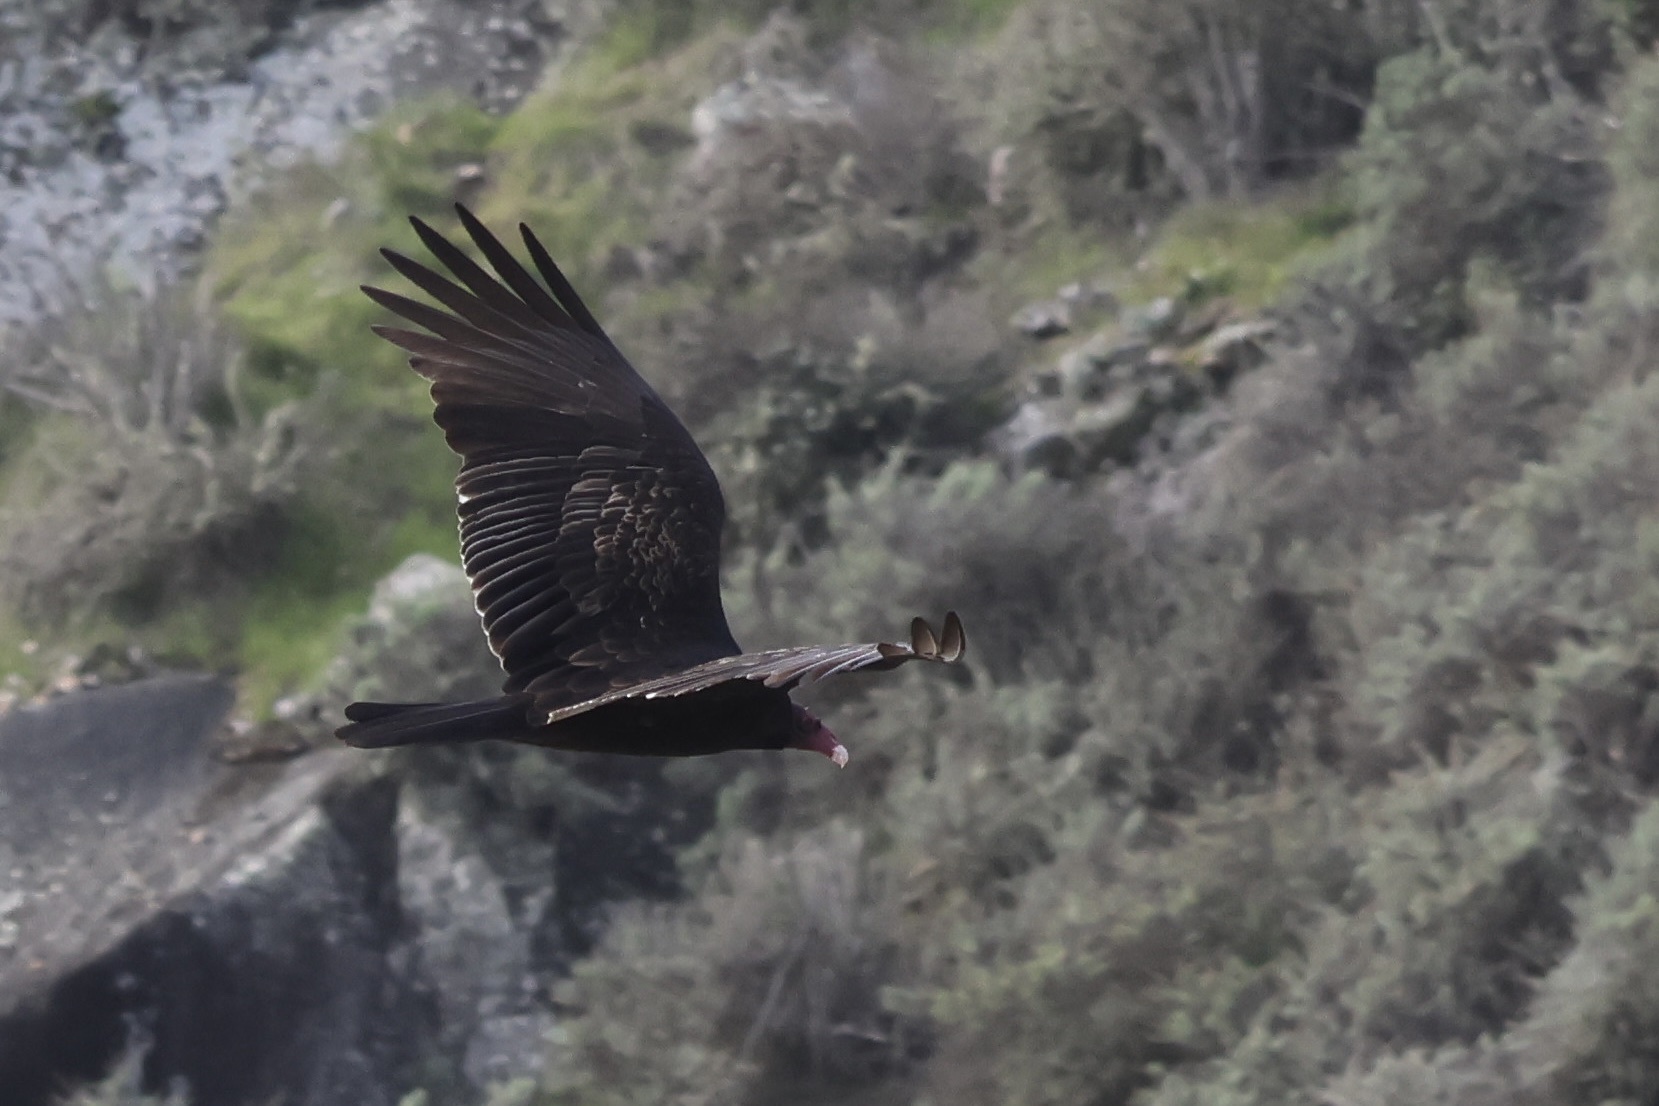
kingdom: Animalia
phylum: Chordata
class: Aves
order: Accipitriformes
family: Cathartidae
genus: Cathartes
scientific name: Cathartes aura
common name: Turkey vulture
